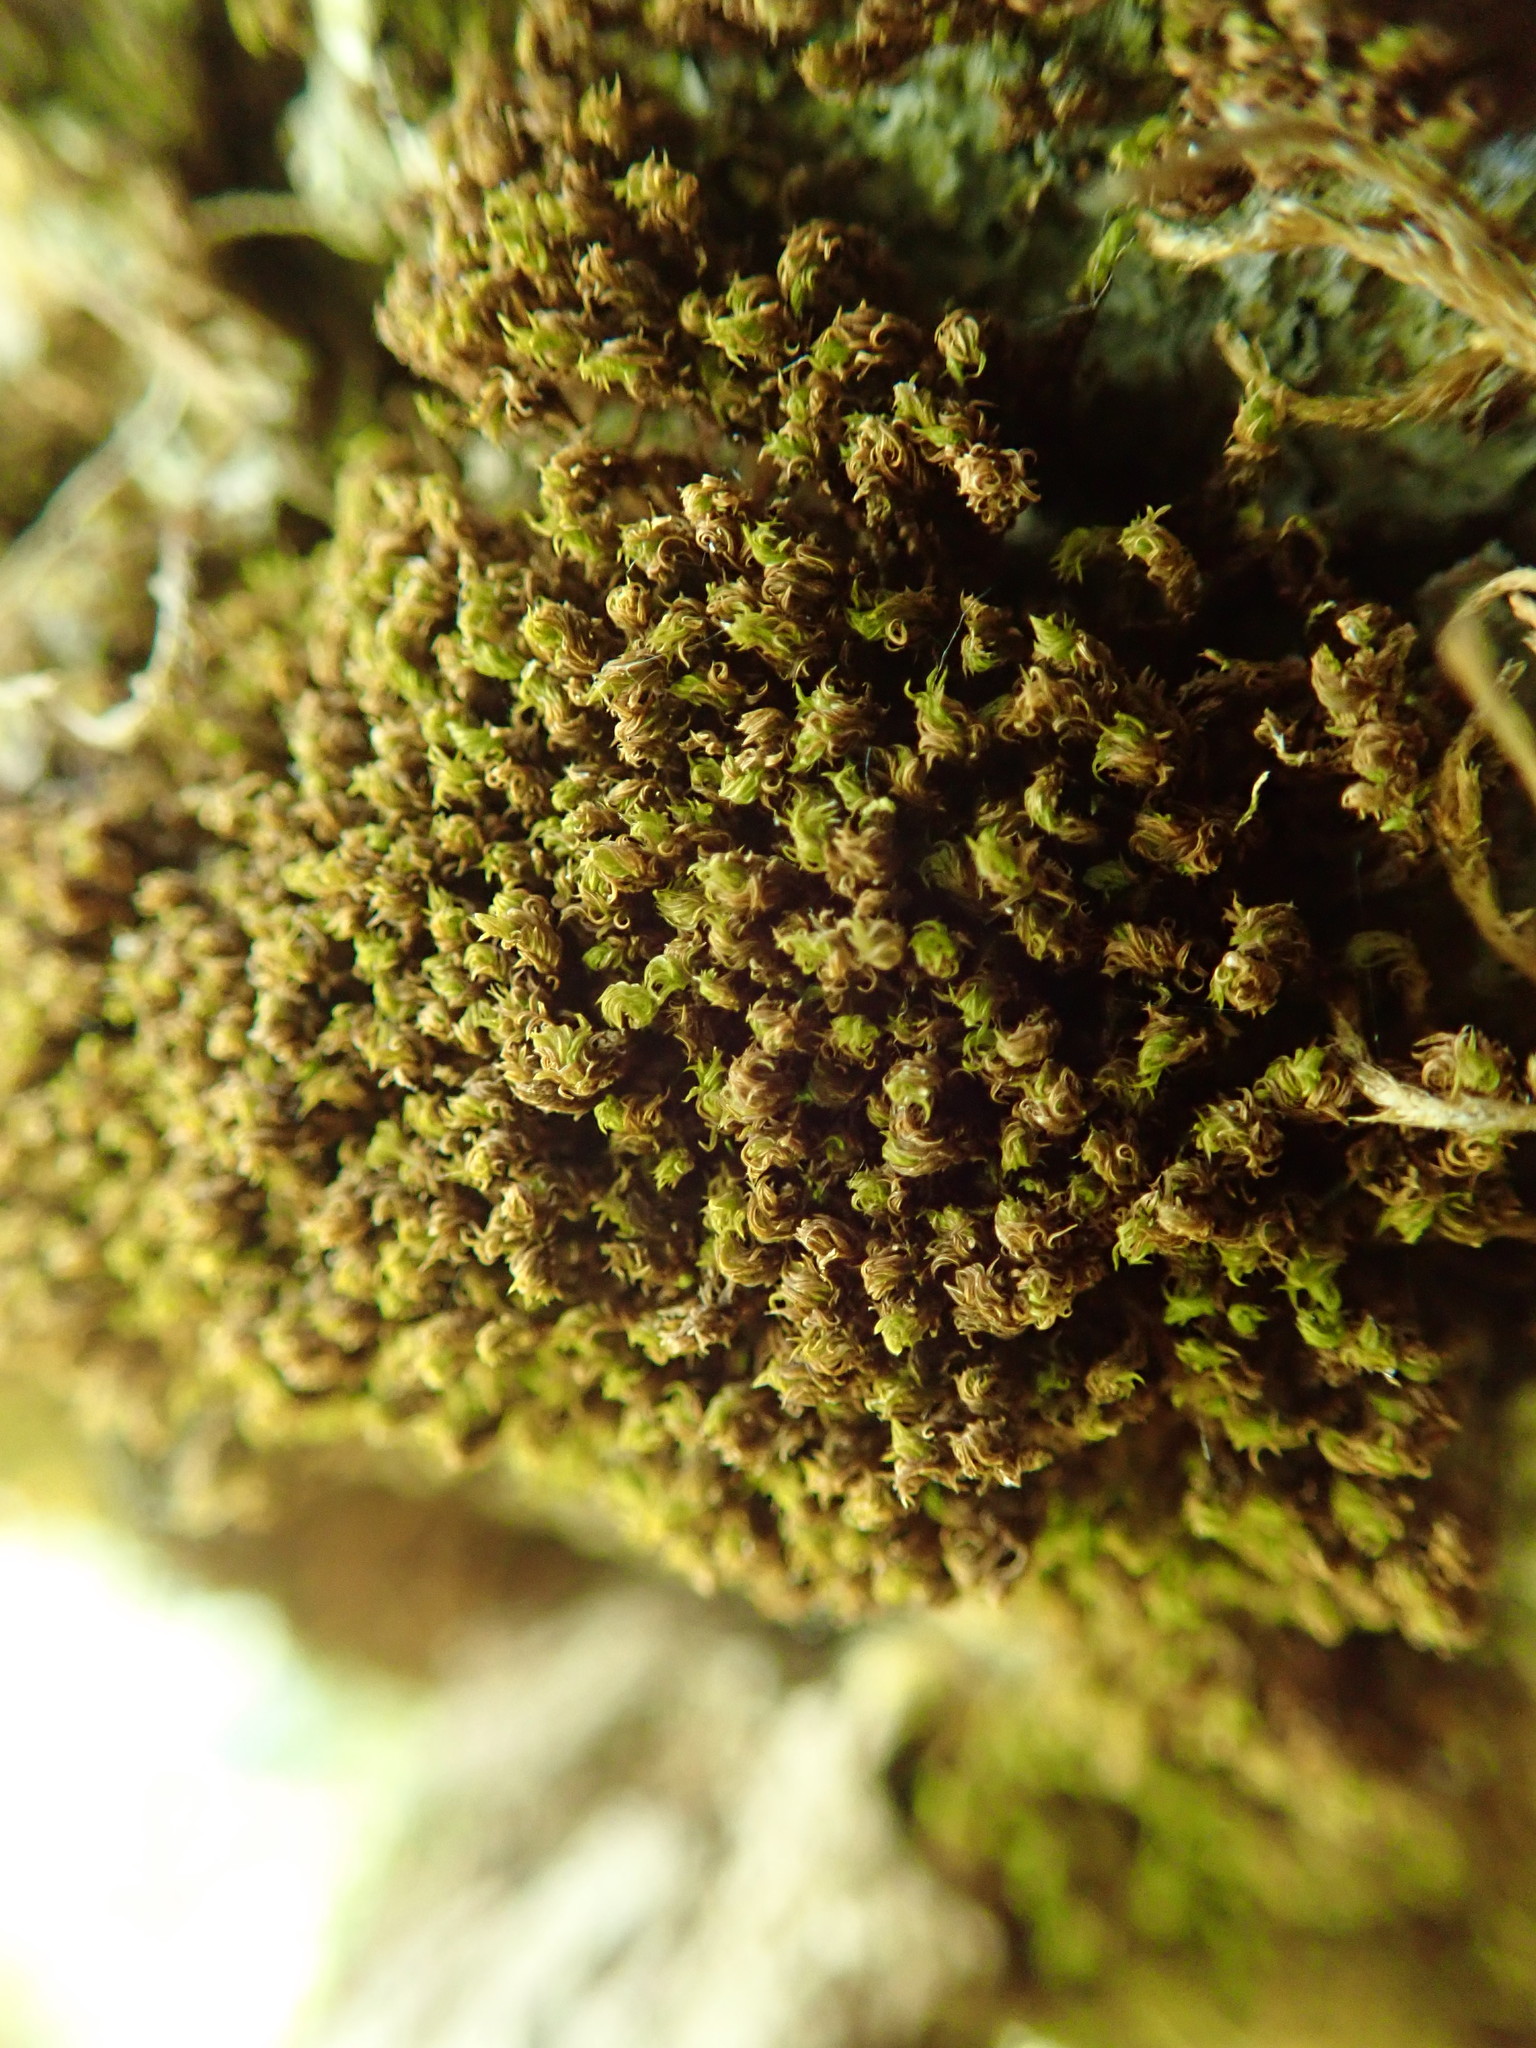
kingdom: Plantae
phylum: Bryophyta
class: Bryopsida
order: Orthotrichales
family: Orthotrichaceae
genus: Zygodon
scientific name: Zygodon rupestris
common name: Park yoke moss
